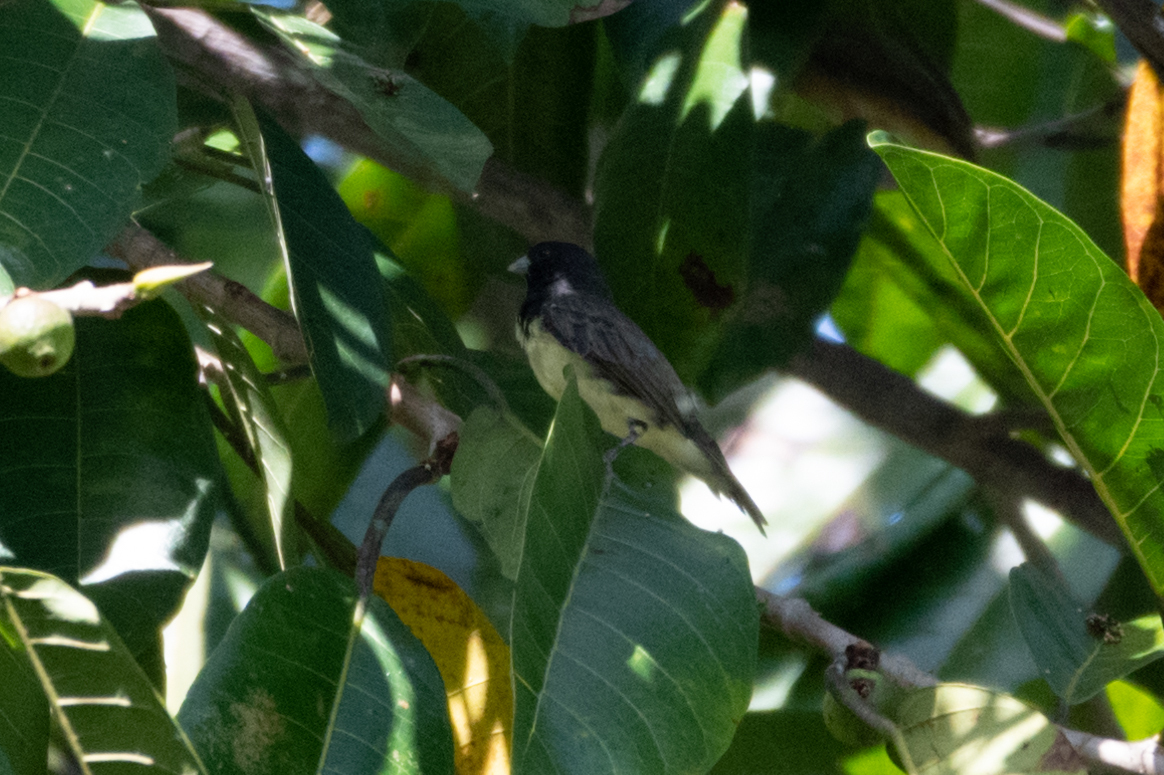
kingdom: Animalia
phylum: Chordata
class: Aves
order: Passeriformes
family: Thraupidae
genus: Sporophila
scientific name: Sporophila nigricollis
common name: Yellow-bellied seedeater
